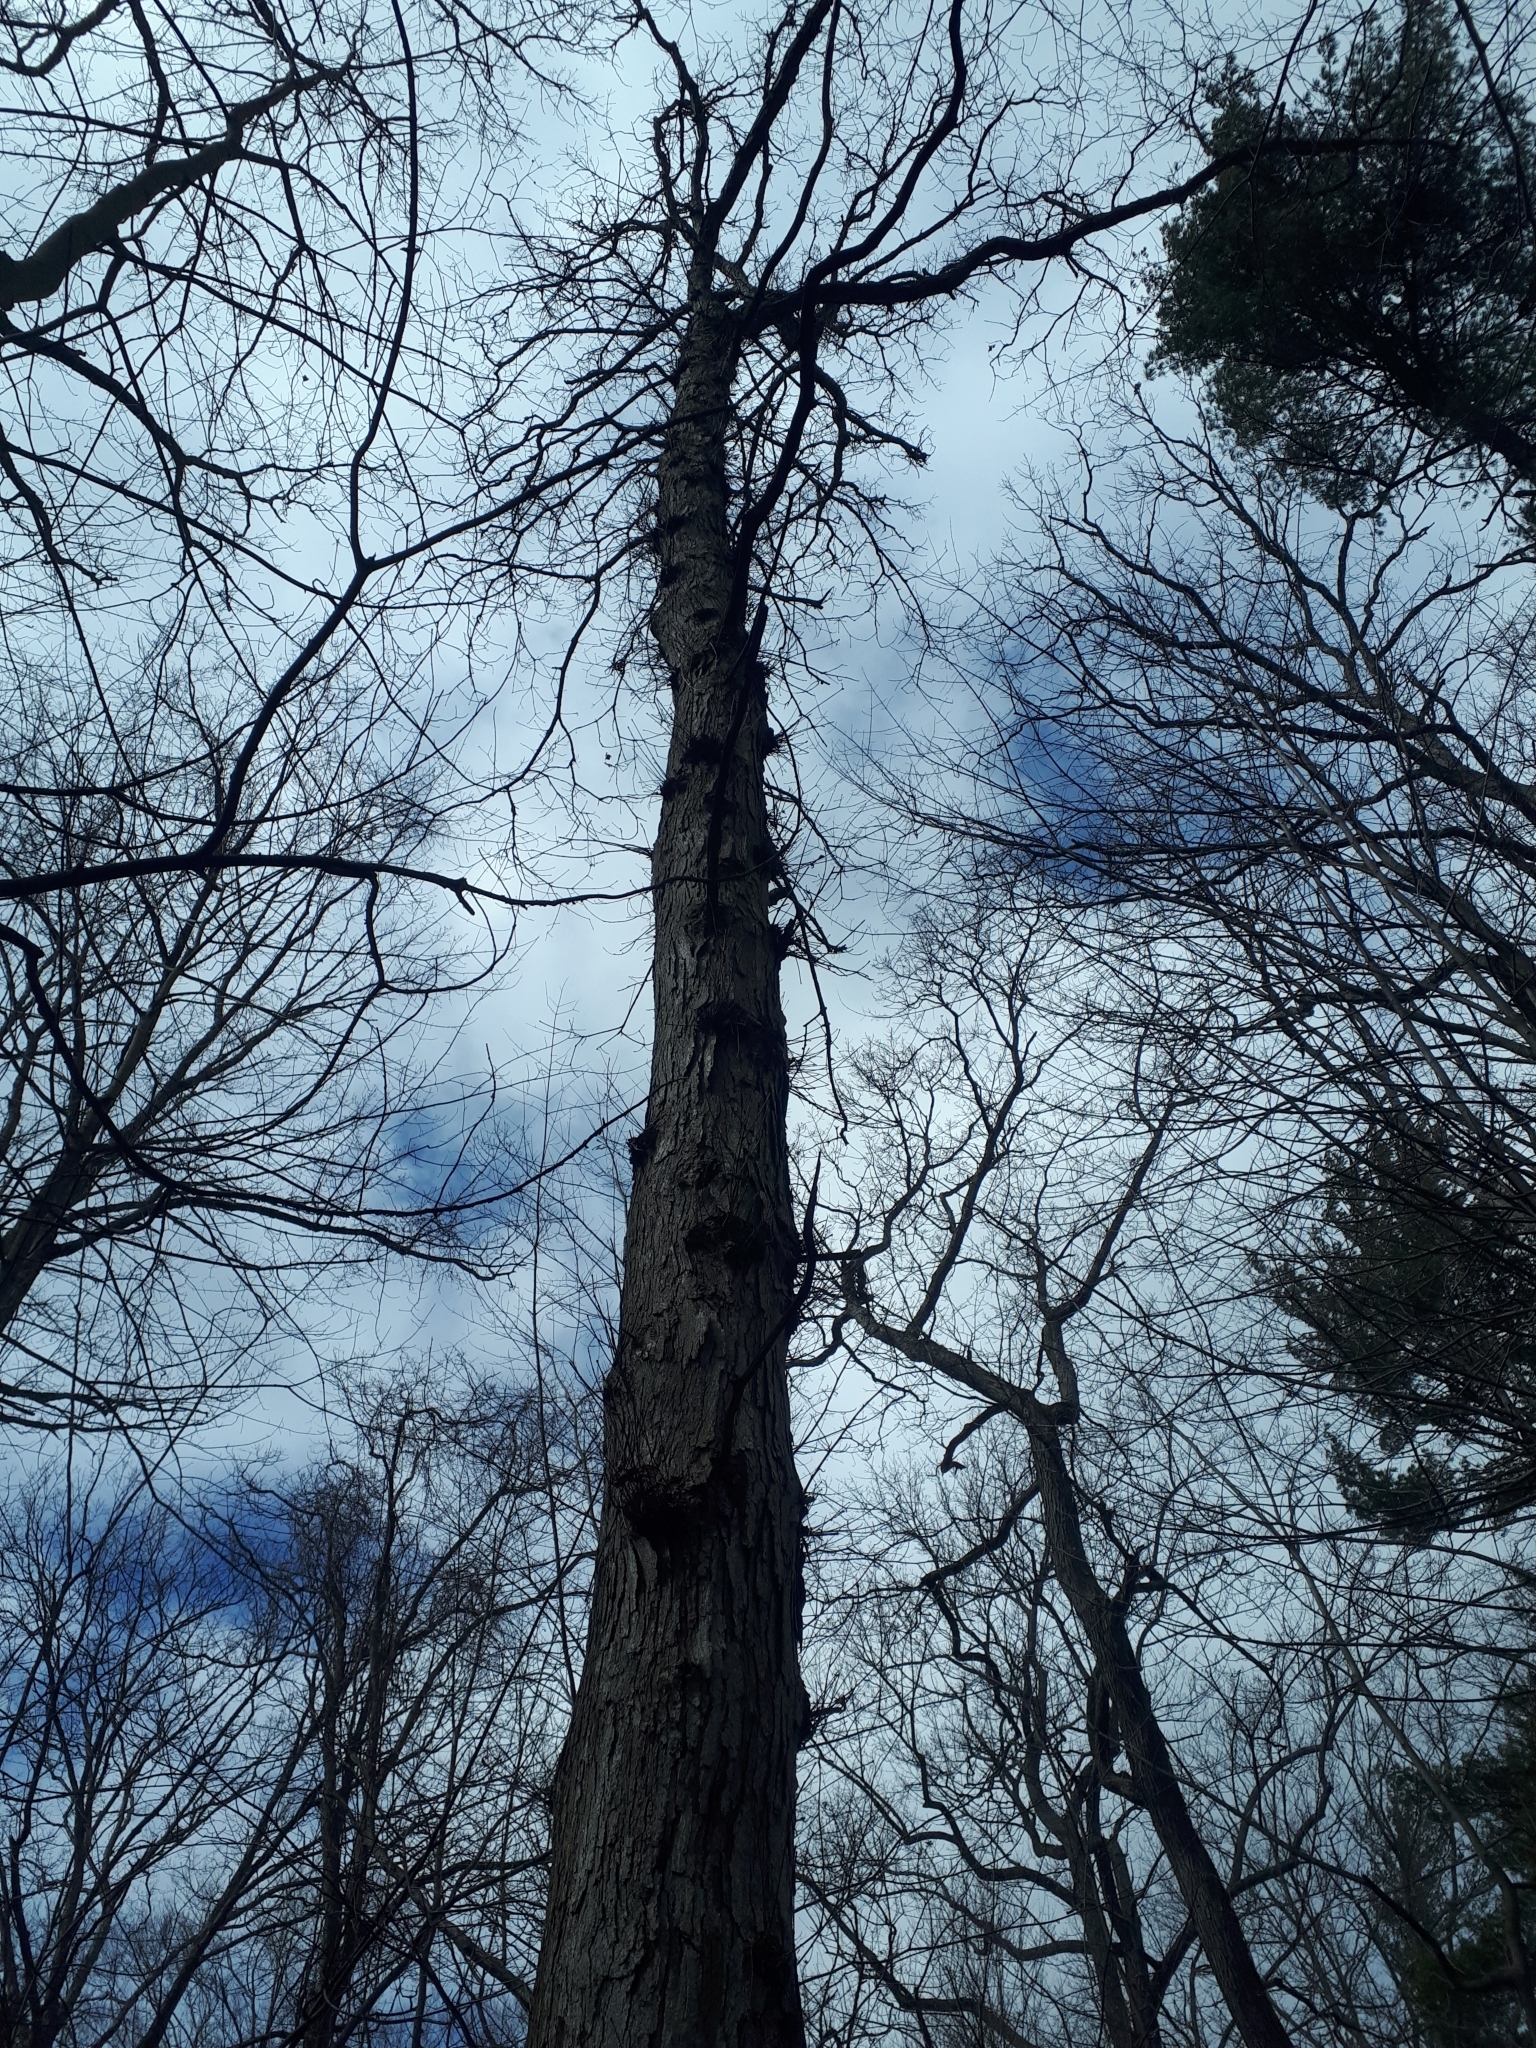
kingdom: Plantae
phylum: Tracheophyta
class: Magnoliopsida
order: Fagales
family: Fagaceae
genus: Quercus
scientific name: Quercus alba
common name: White oak
